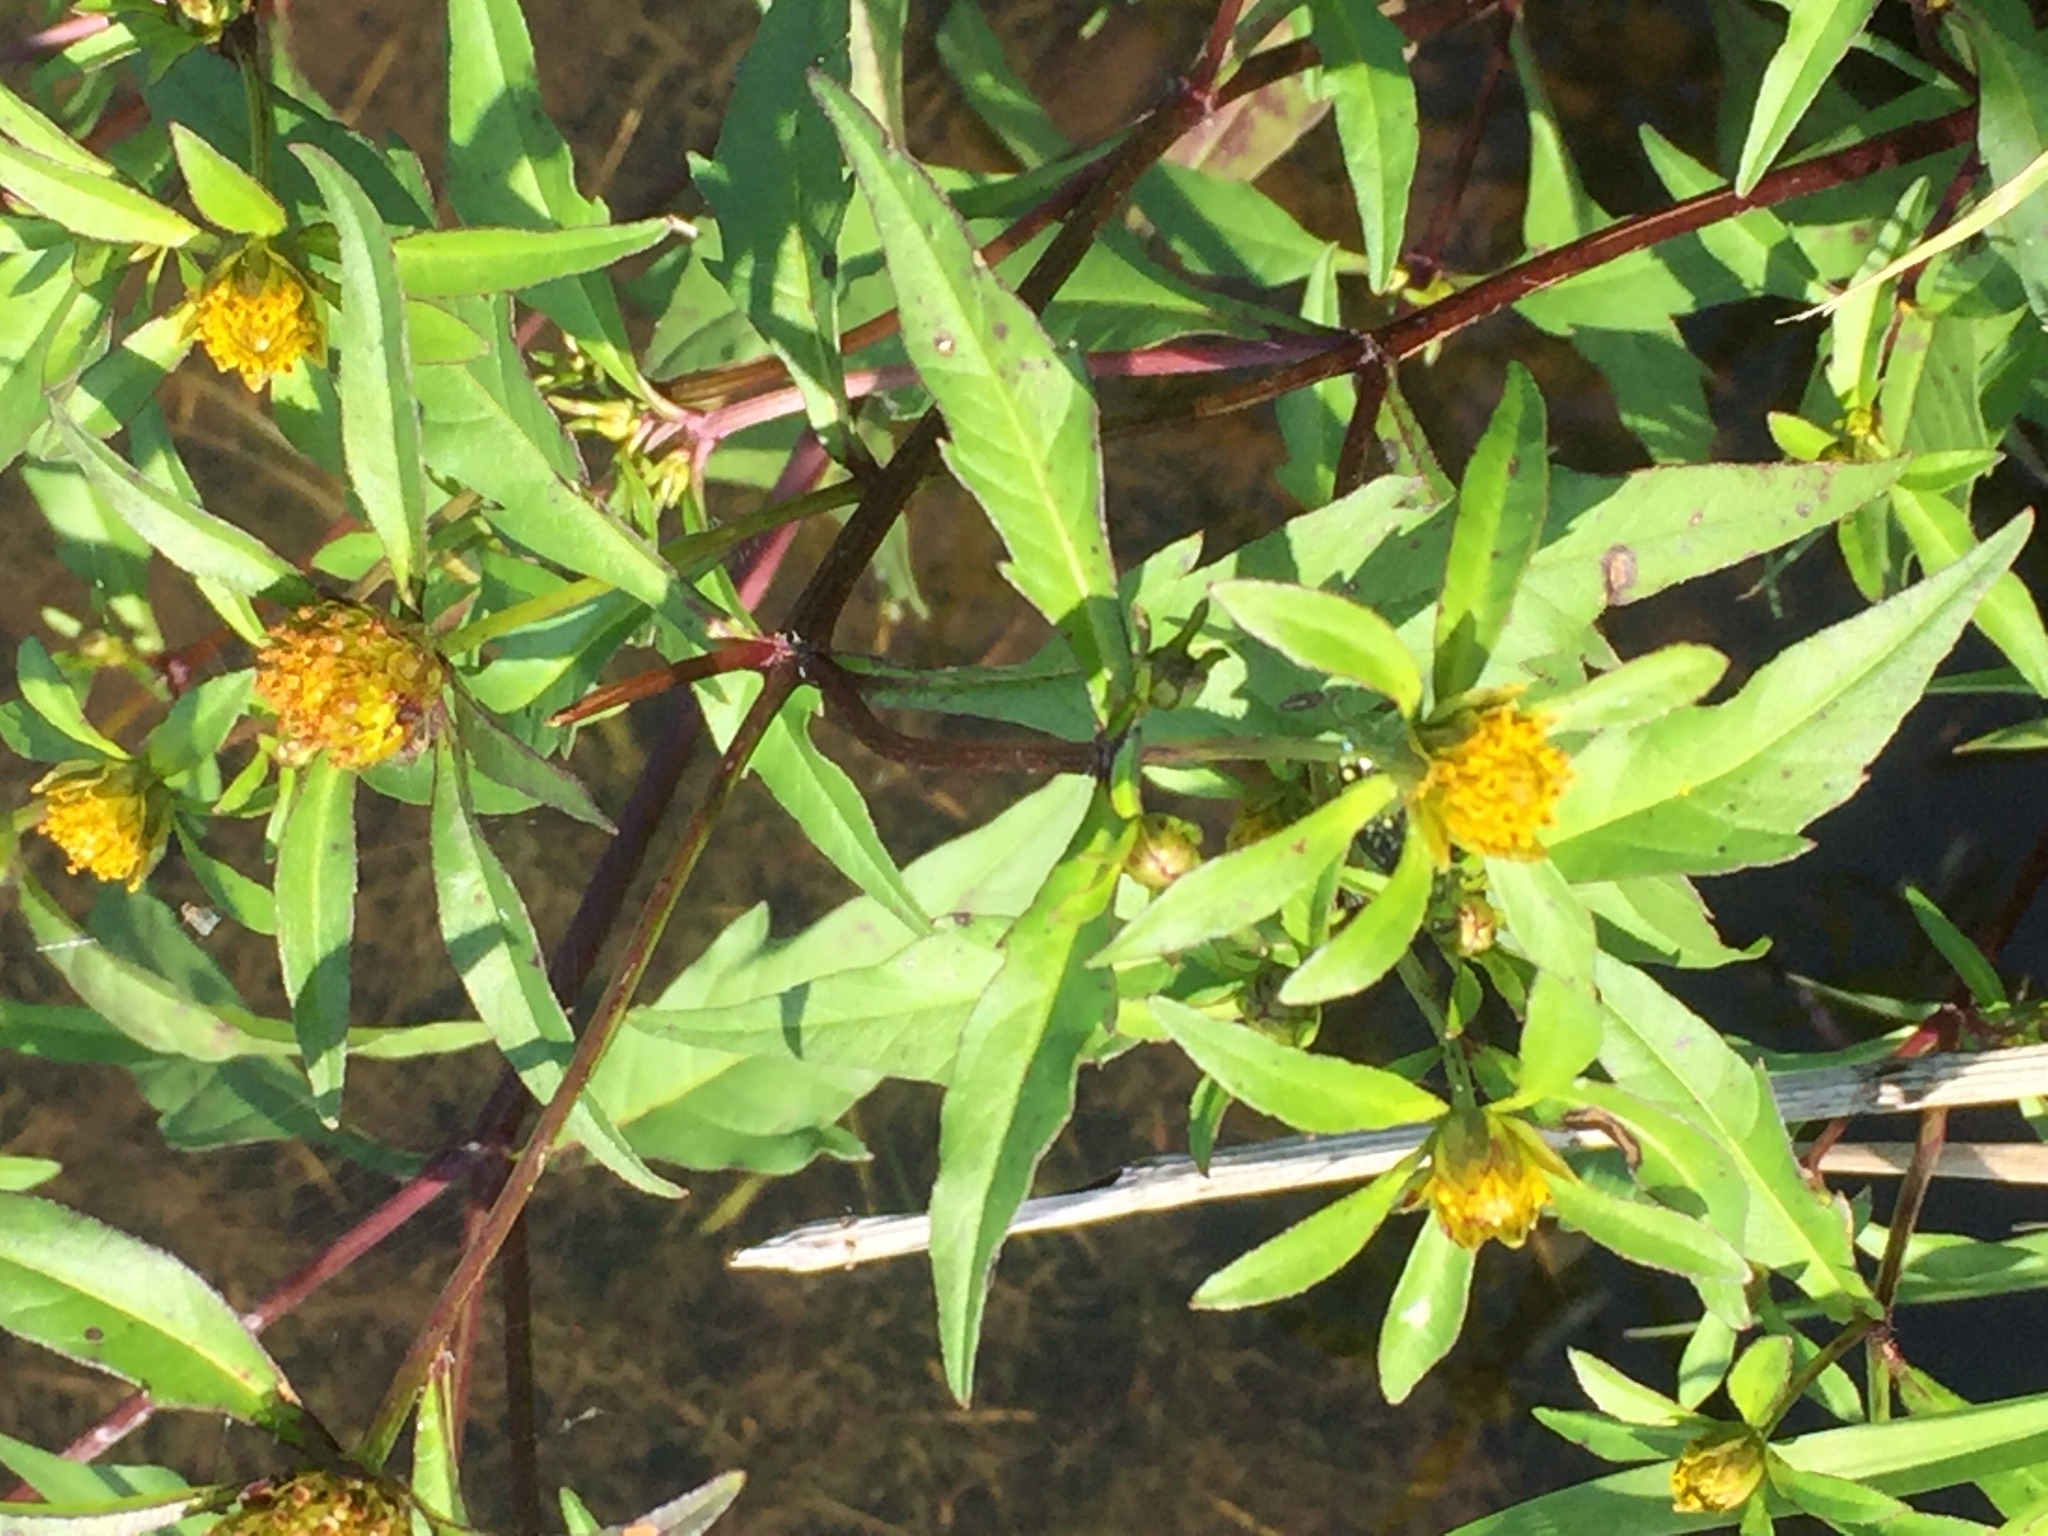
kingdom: Plantae
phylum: Tracheophyta
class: Magnoliopsida
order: Asterales
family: Asteraceae
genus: Bidens
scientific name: Bidens frondosa
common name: Beggarticks
